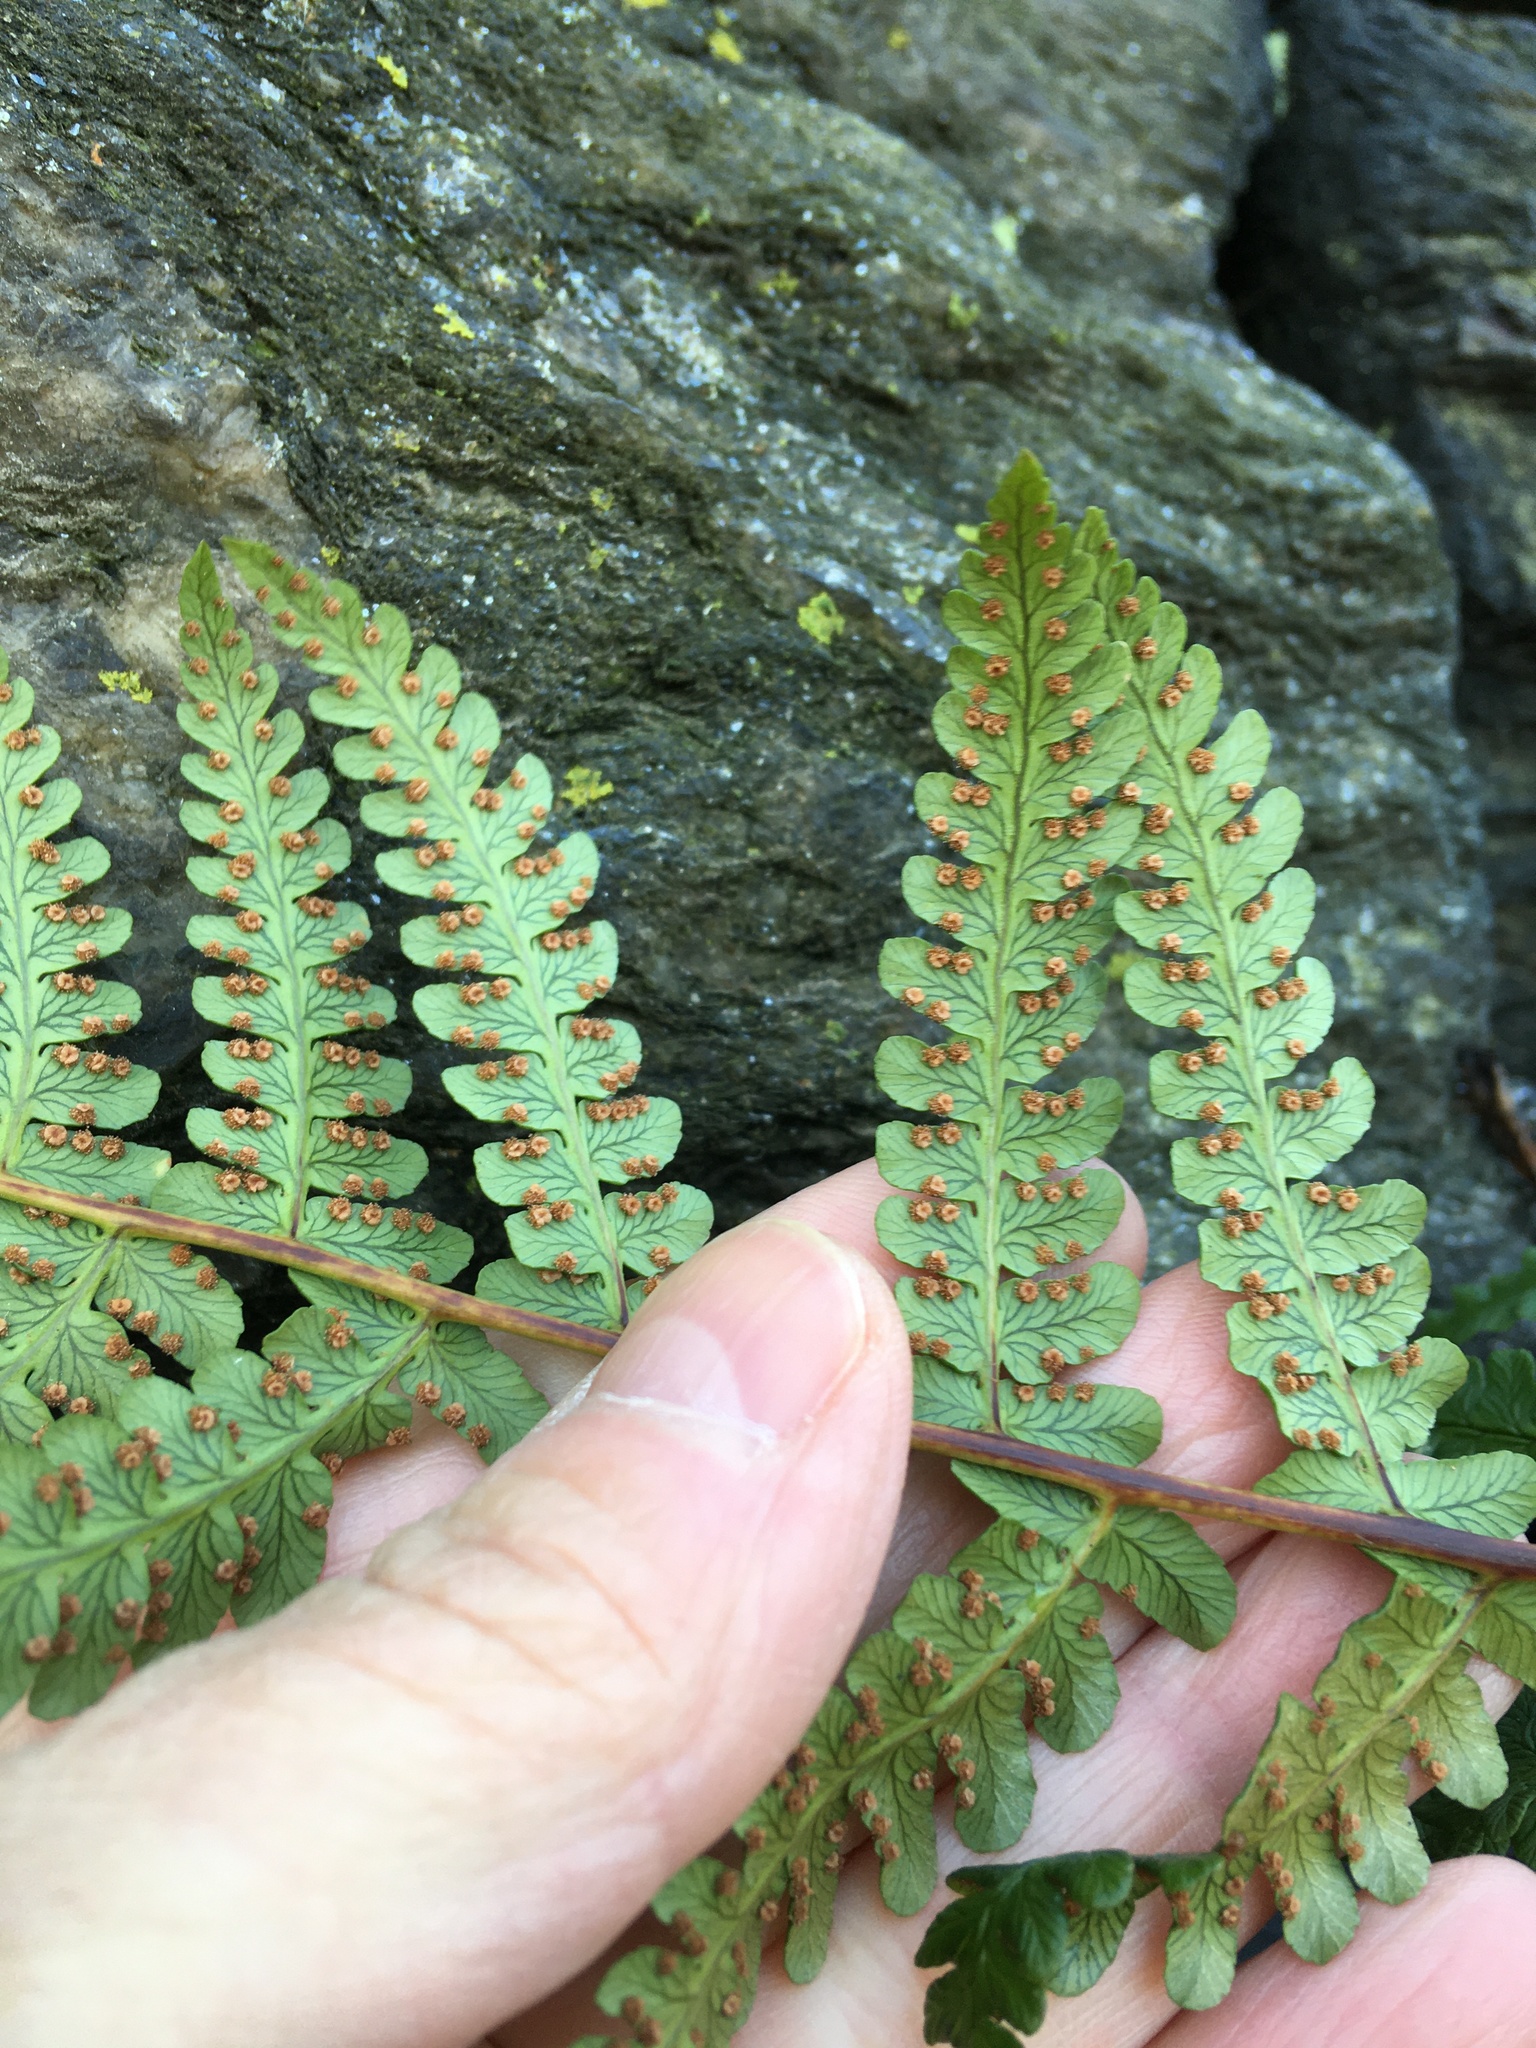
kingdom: Plantae
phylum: Tracheophyta
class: Polypodiopsida
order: Polypodiales
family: Dryopteridaceae
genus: Dryopteris
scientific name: Dryopteris marginalis
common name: Marginal wood fern
